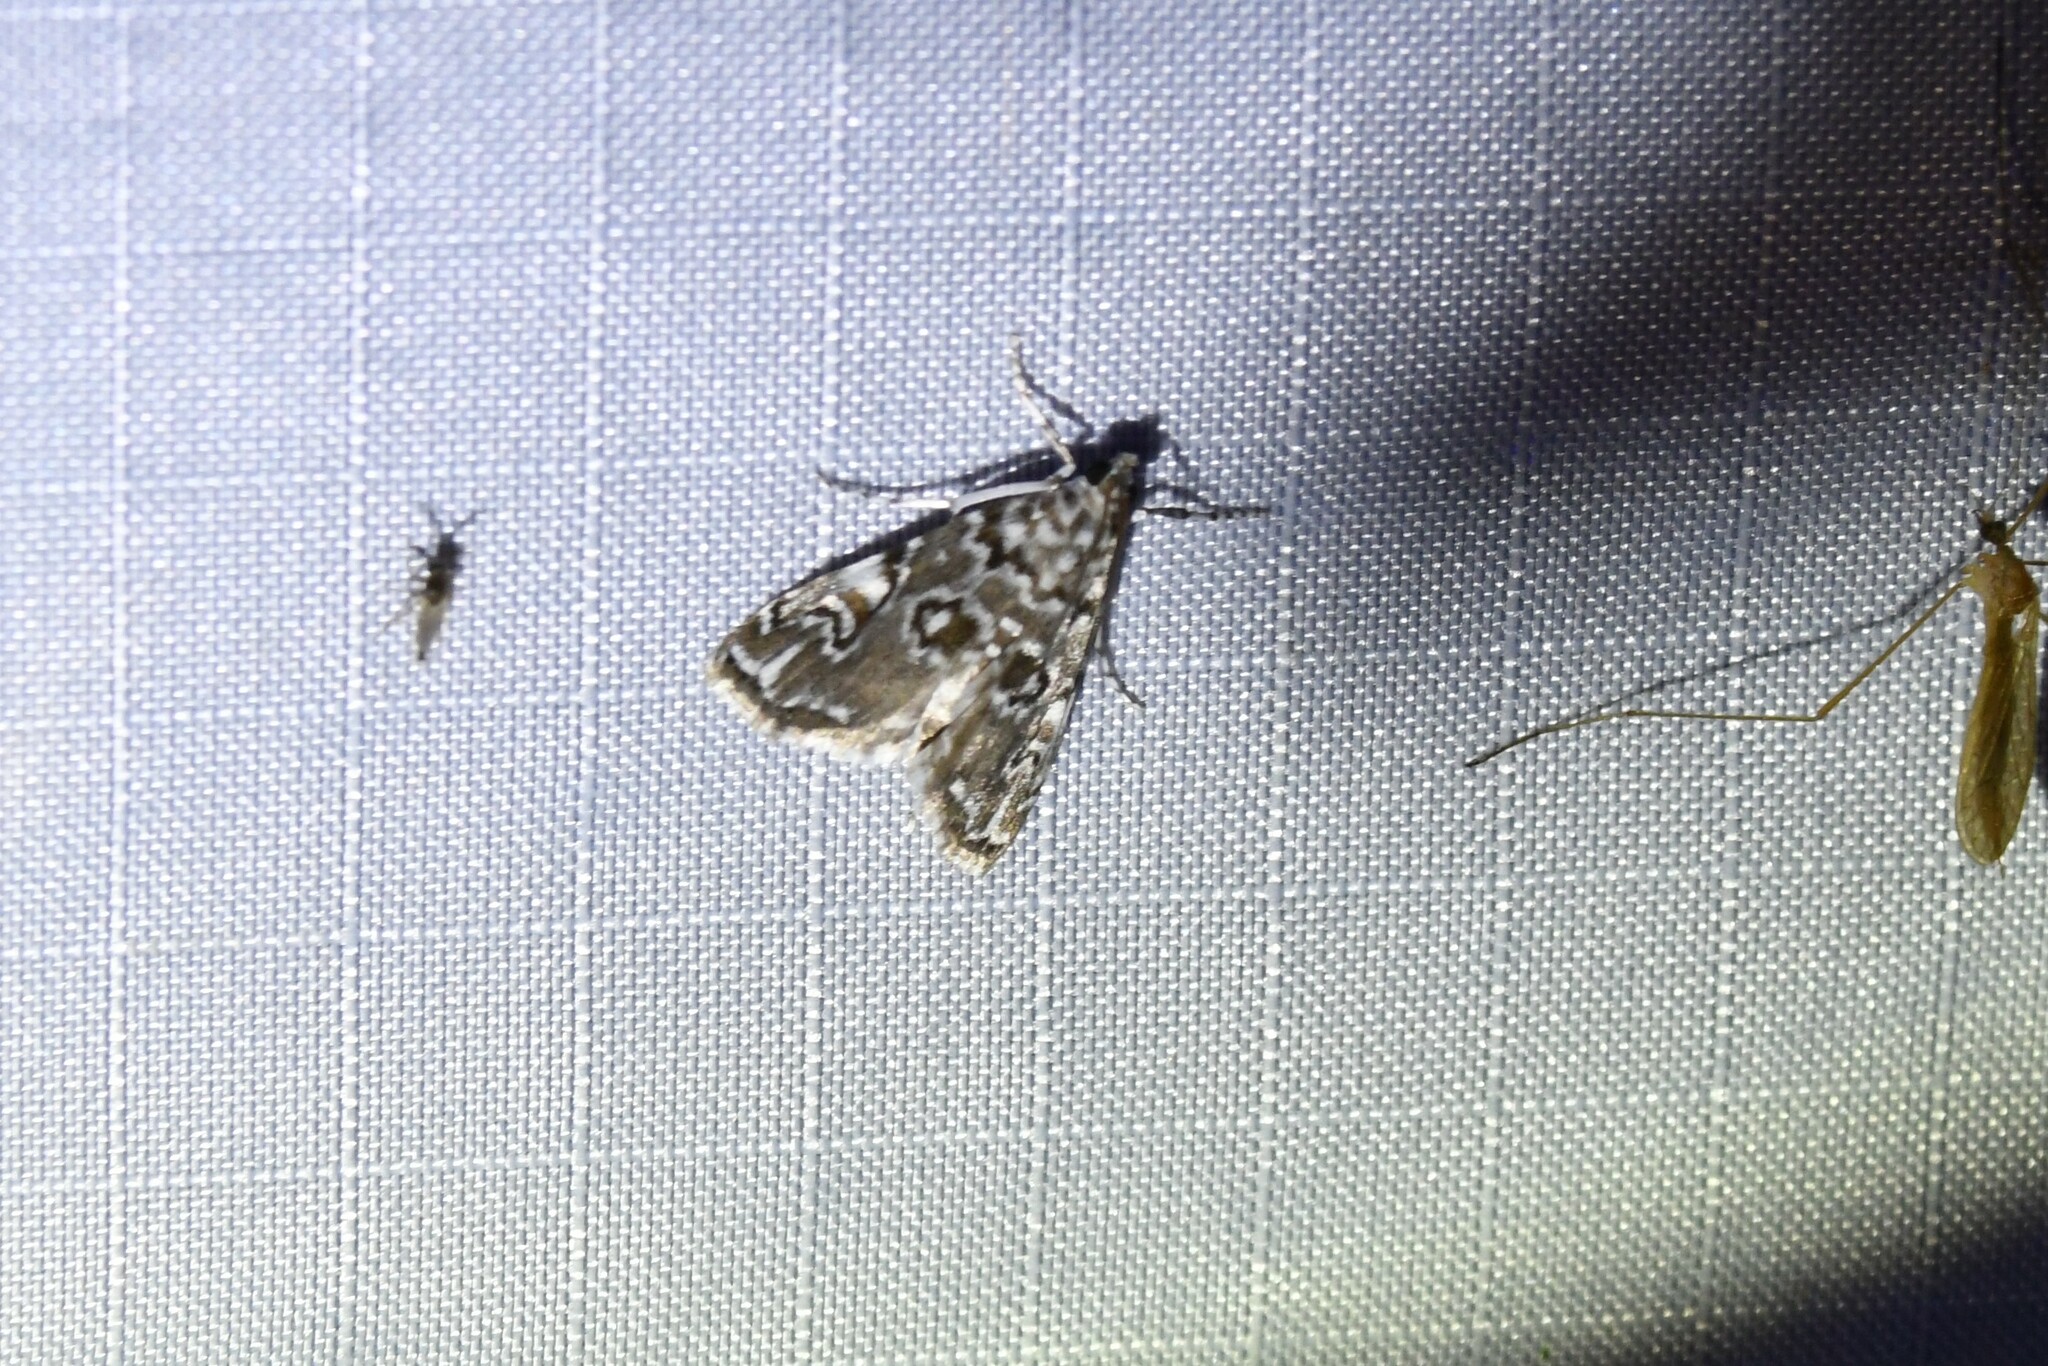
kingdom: Animalia
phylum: Arthropoda
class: Insecta
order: Lepidoptera
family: Crambidae
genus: Elophila
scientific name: Elophila gyralis
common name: Waterlily borer moth
